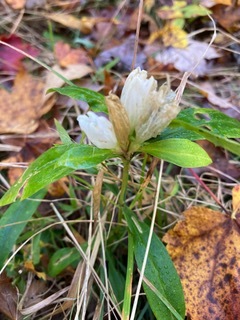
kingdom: Plantae
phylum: Tracheophyta
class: Magnoliopsida
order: Gentianales
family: Gentianaceae
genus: Gentiana
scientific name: Gentiana villosa
